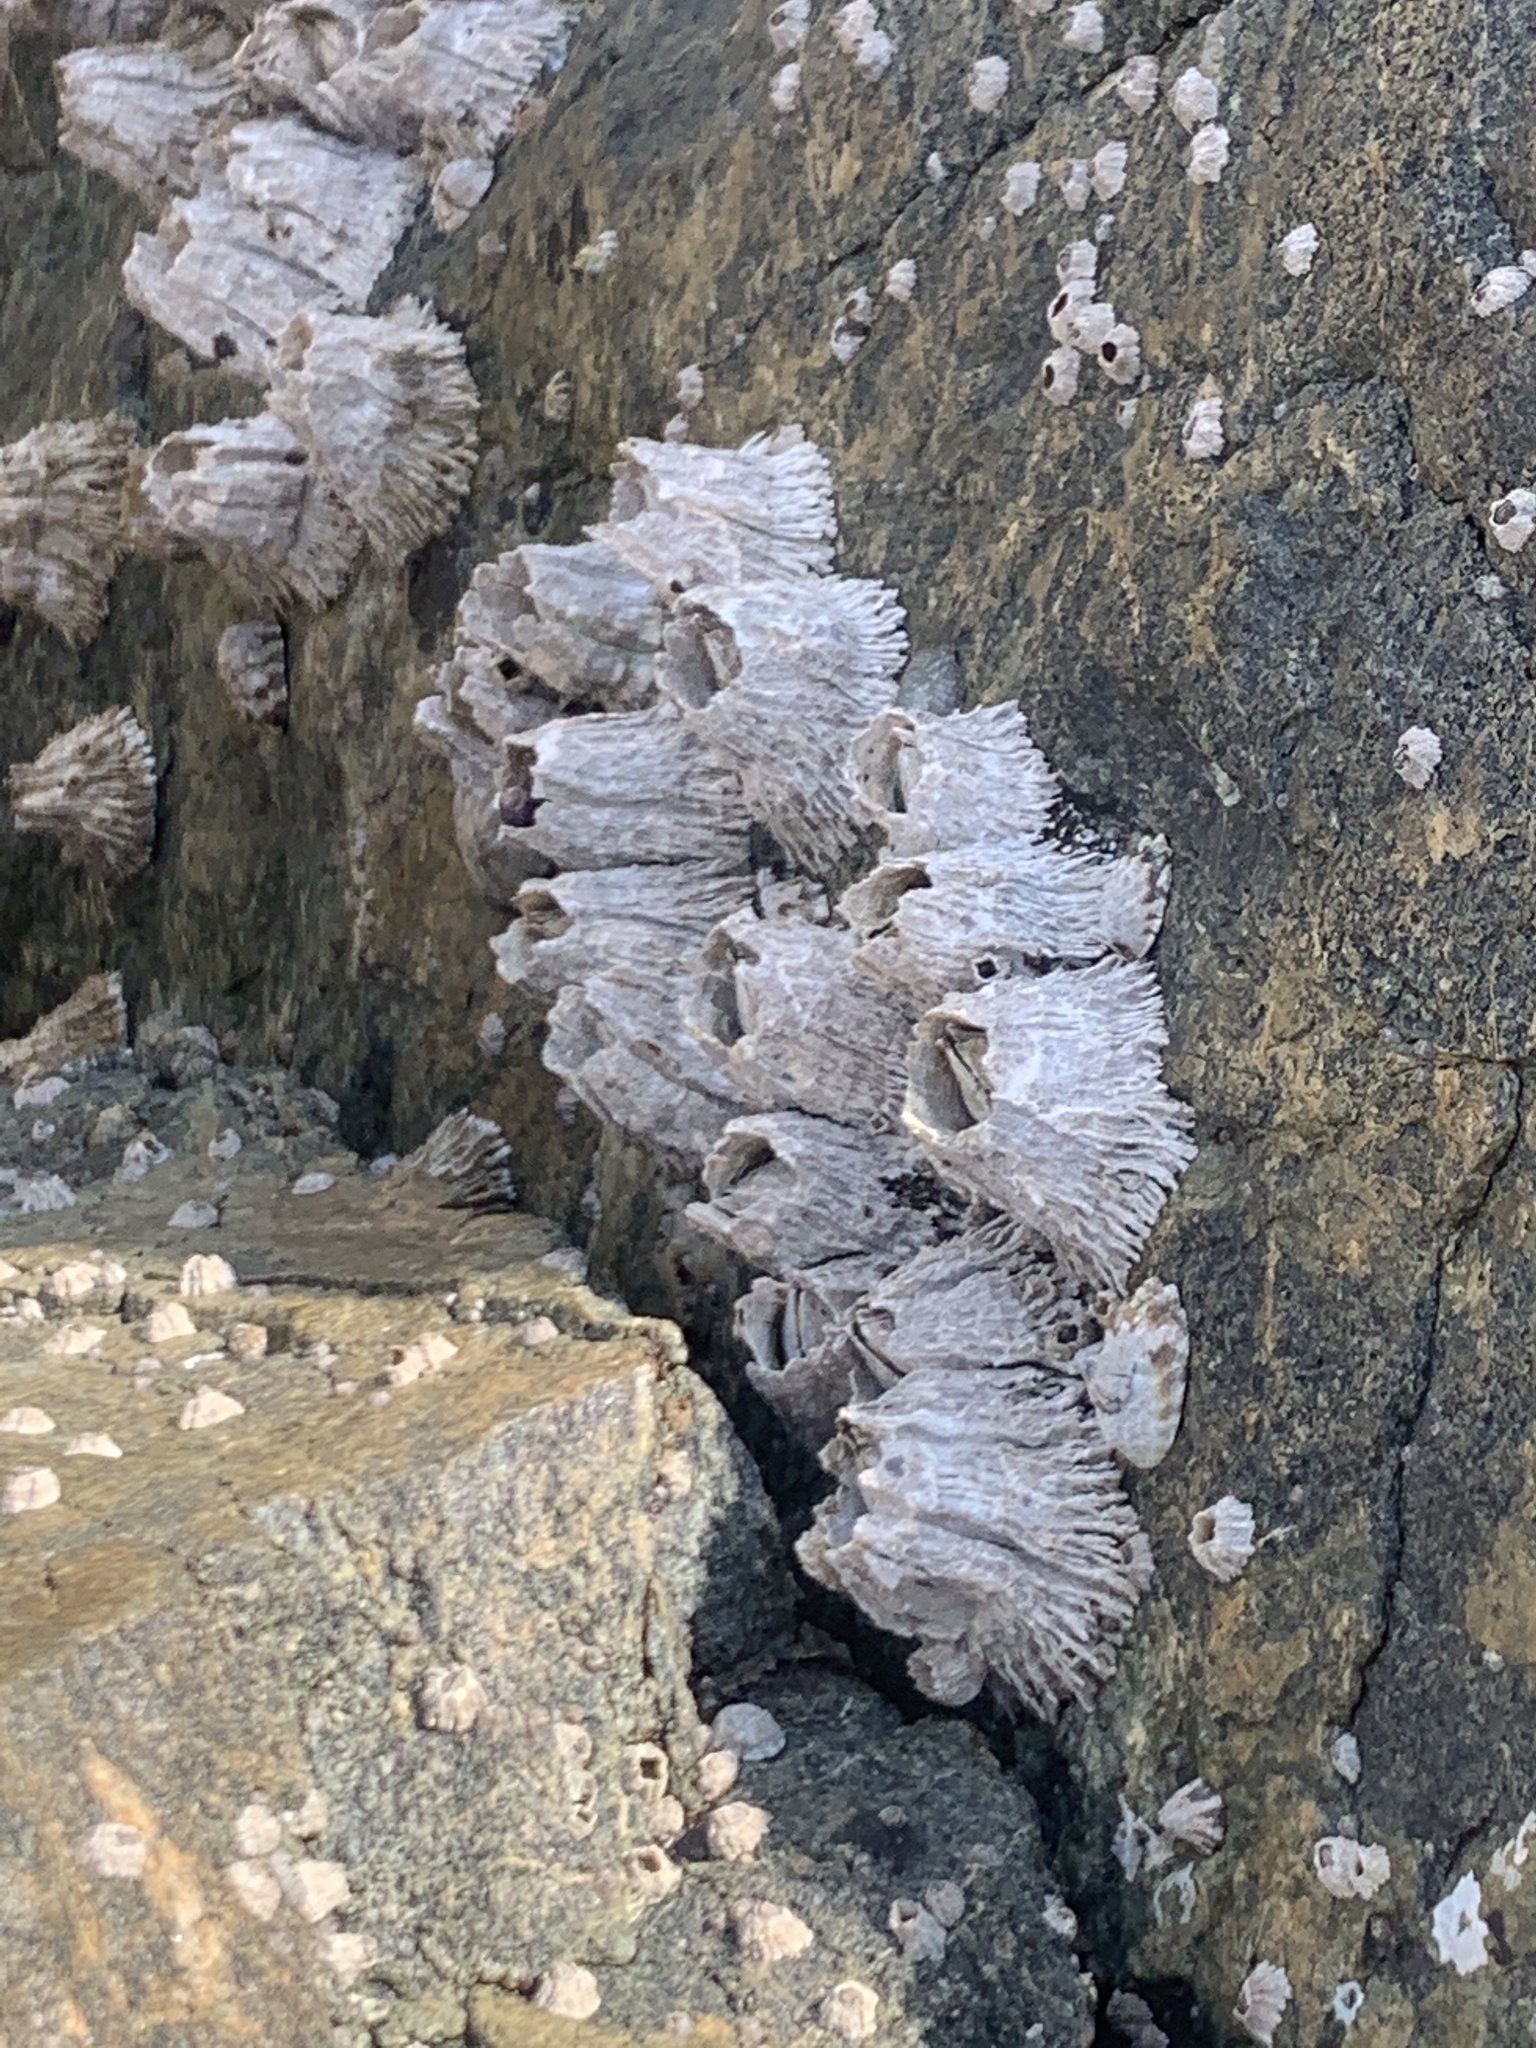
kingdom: Animalia
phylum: Arthropoda
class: Maxillopoda
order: Sessilia
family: Archaeobalanidae
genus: Semibalanus
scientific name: Semibalanus cariosus
